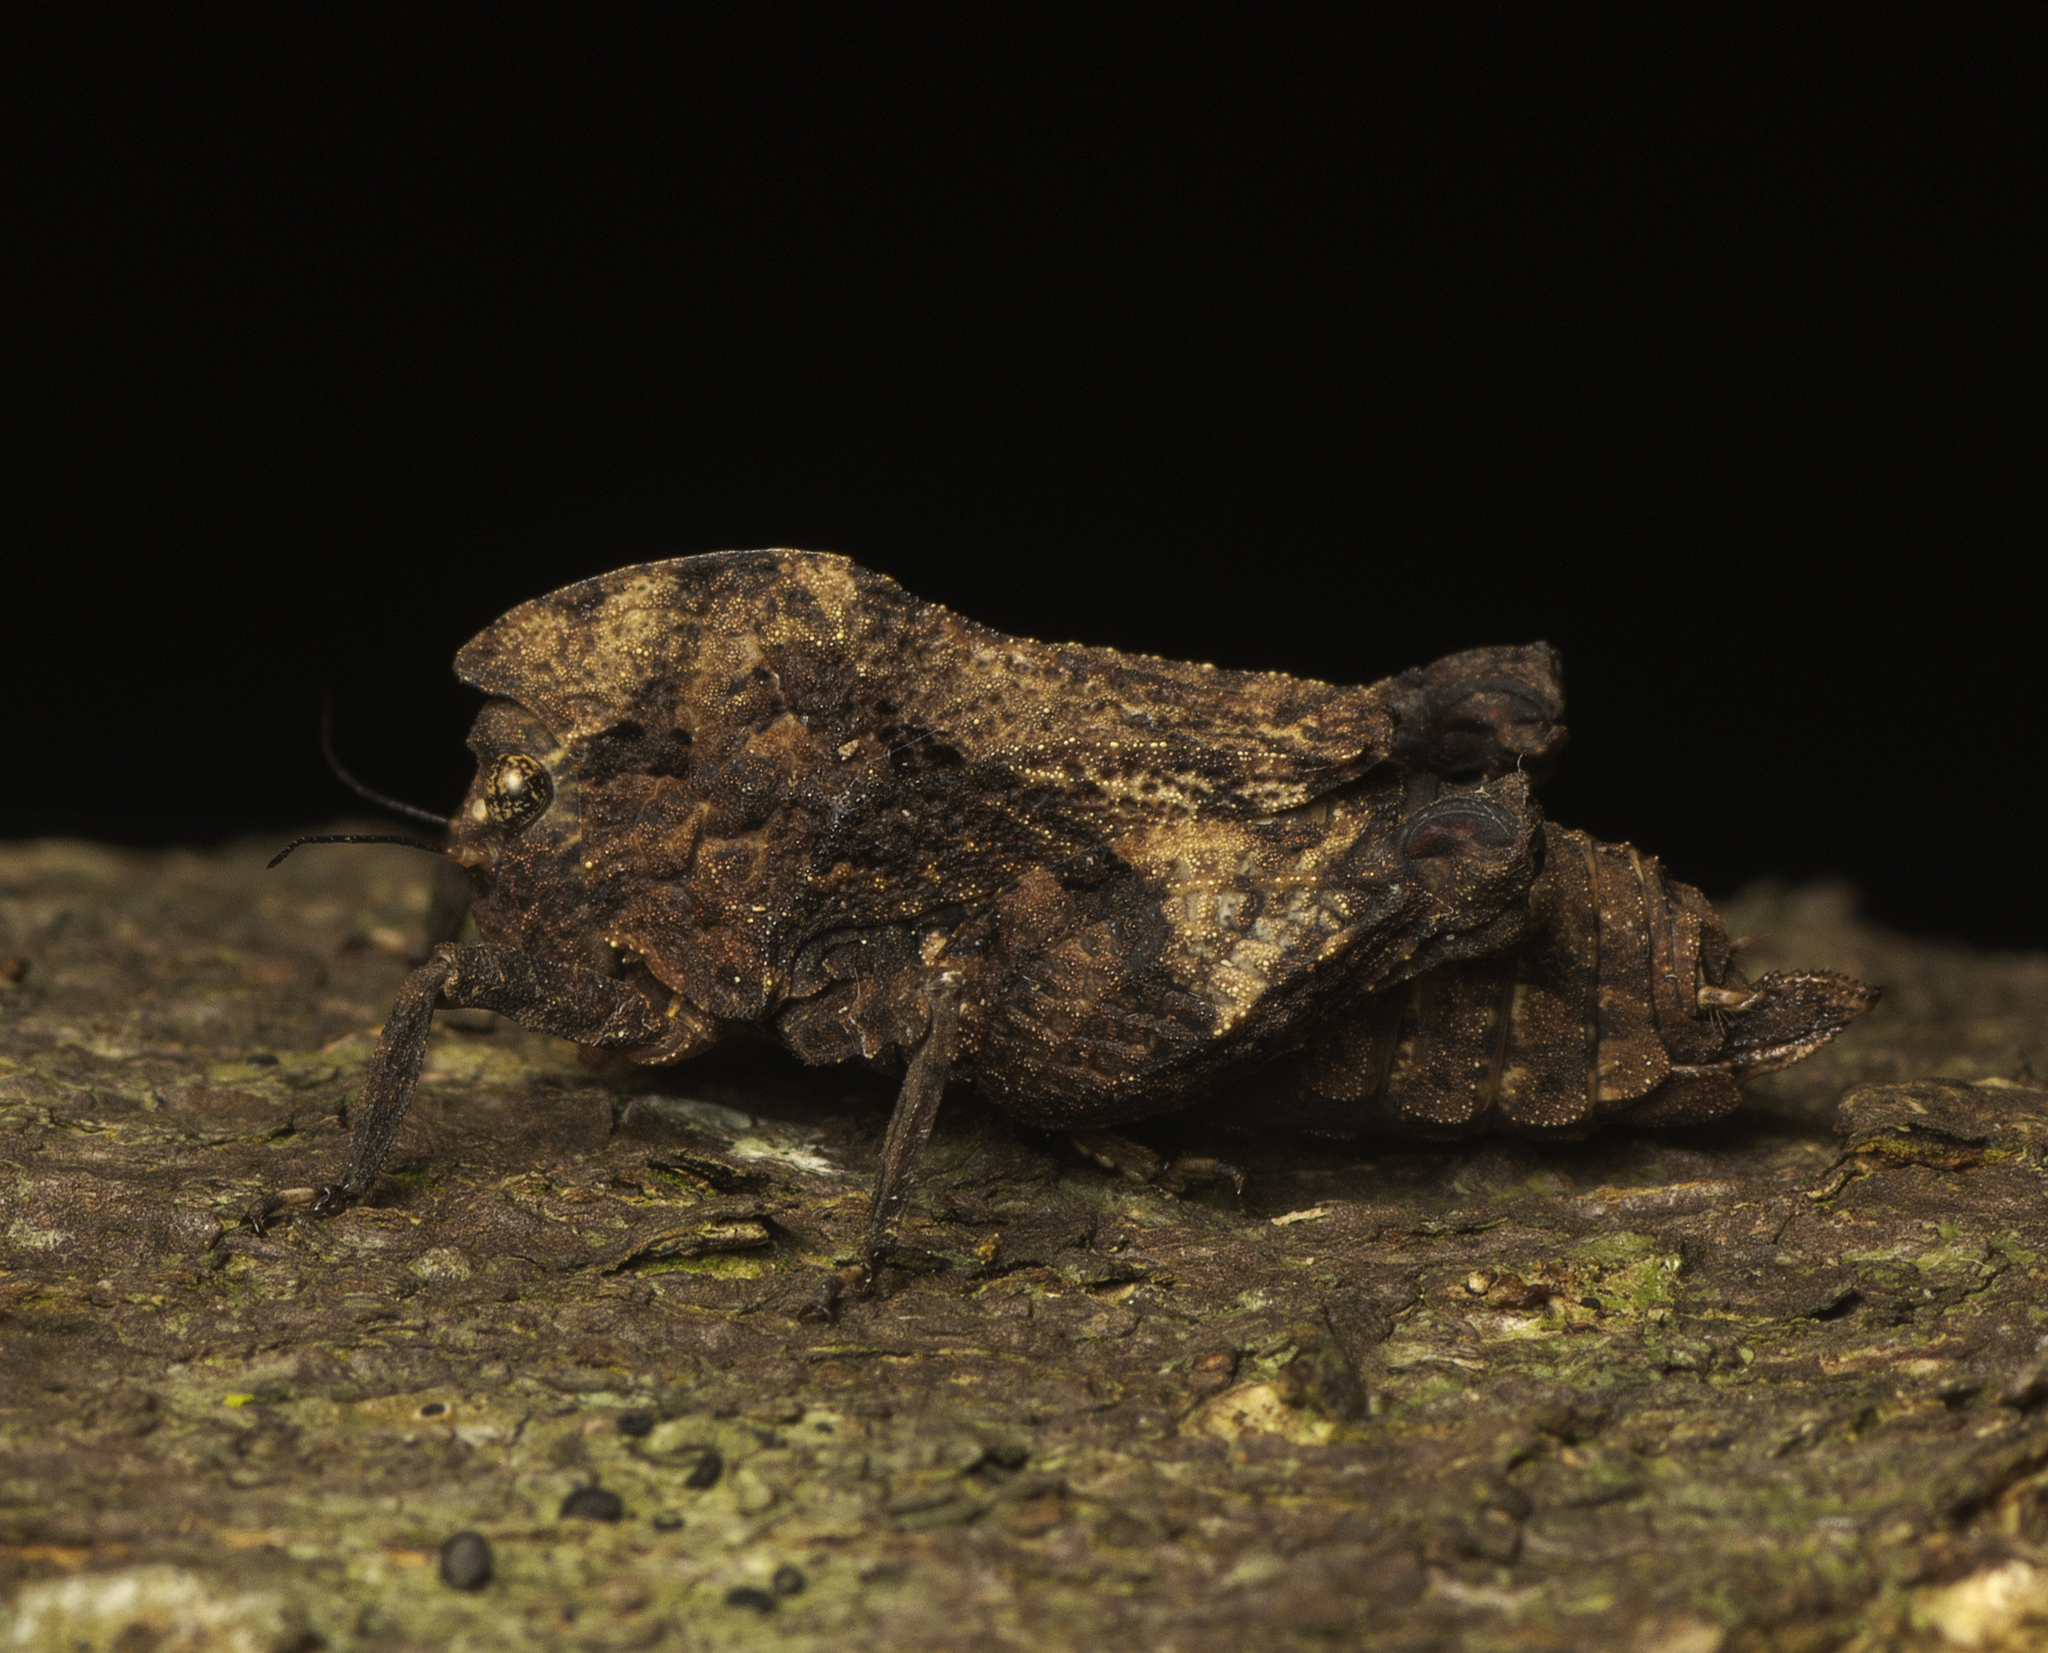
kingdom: Animalia
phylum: Arthropoda
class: Insecta
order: Orthoptera
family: Tetrigidae
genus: Vingselina
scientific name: Vingselina crassa
